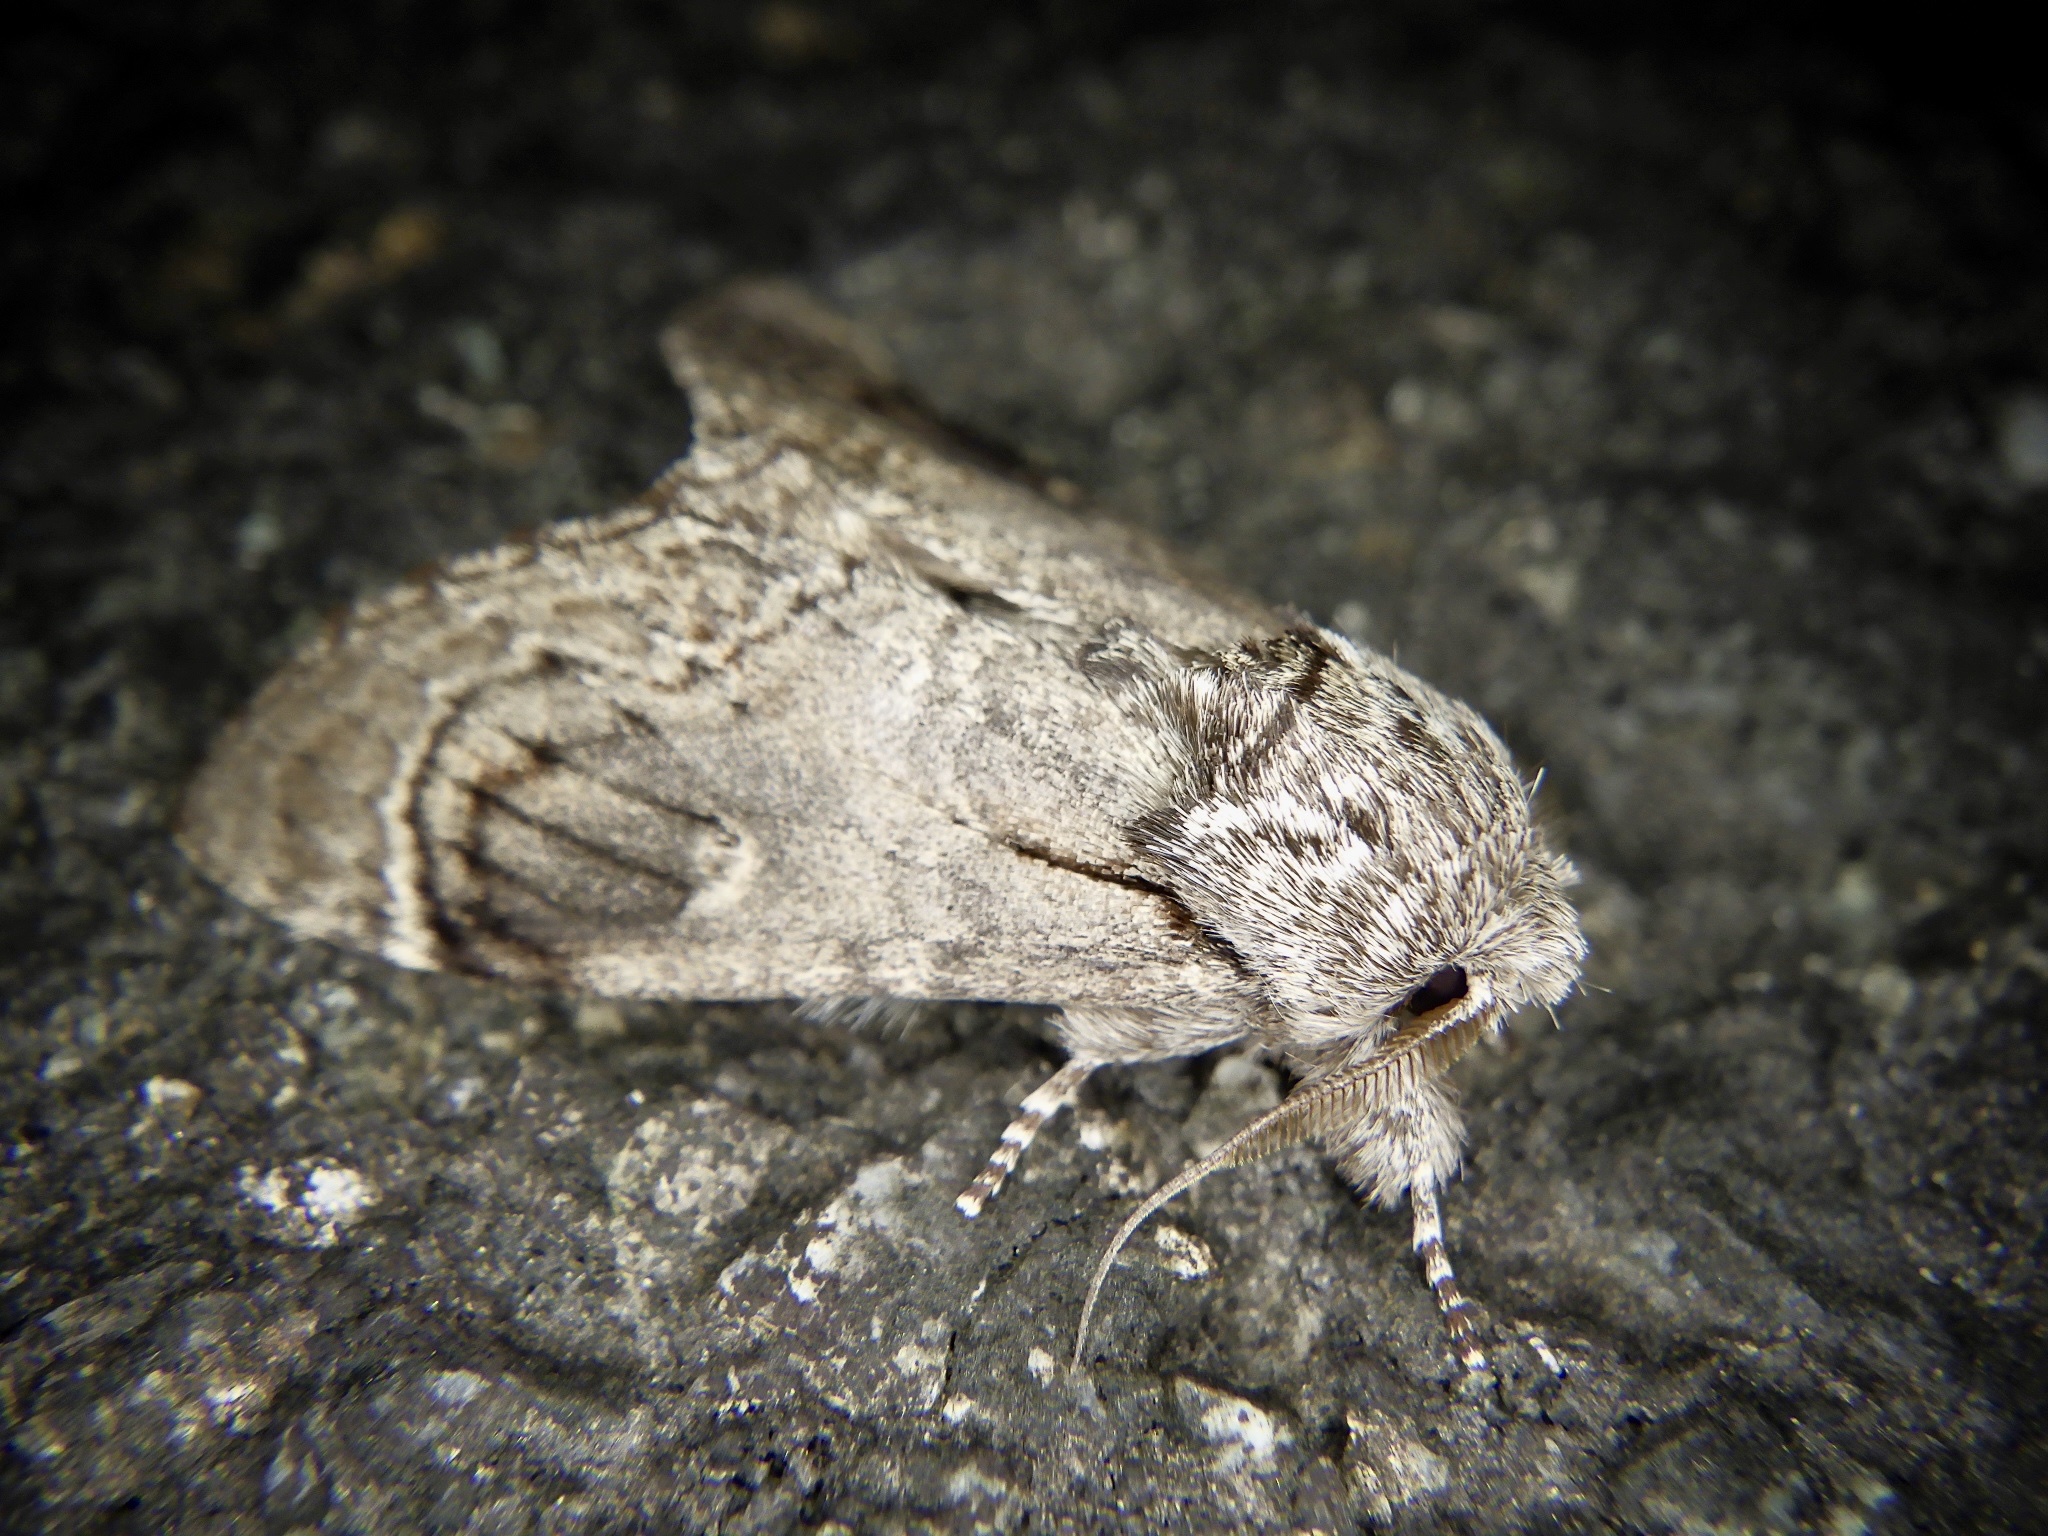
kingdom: Animalia
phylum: Arthropoda
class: Insecta
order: Lepidoptera
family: Notodontidae
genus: Fentonia
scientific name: Fentonia ocypete
